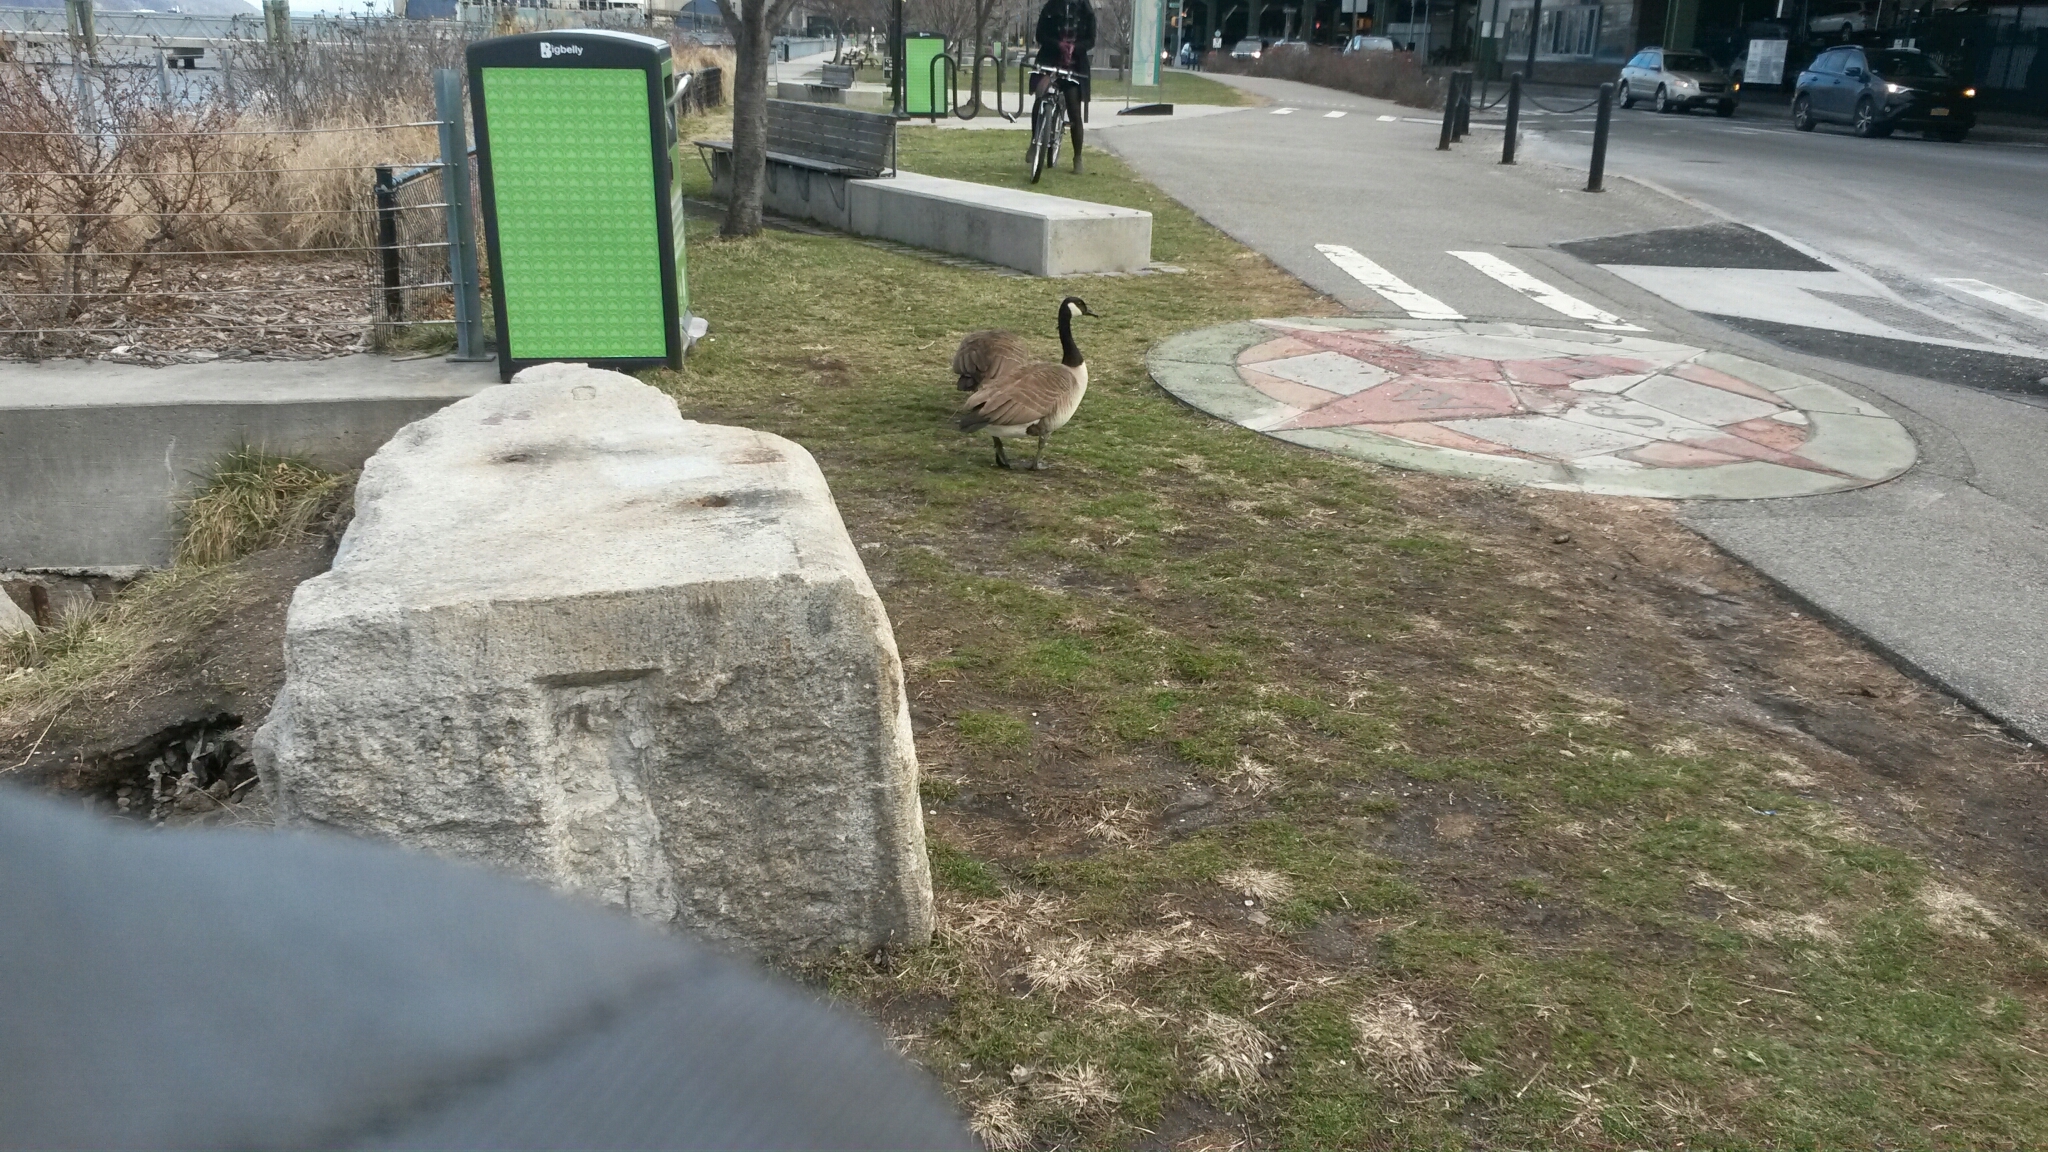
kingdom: Animalia
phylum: Chordata
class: Aves
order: Anseriformes
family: Anatidae
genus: Branta
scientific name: Branta canadensis
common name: Canada goose
